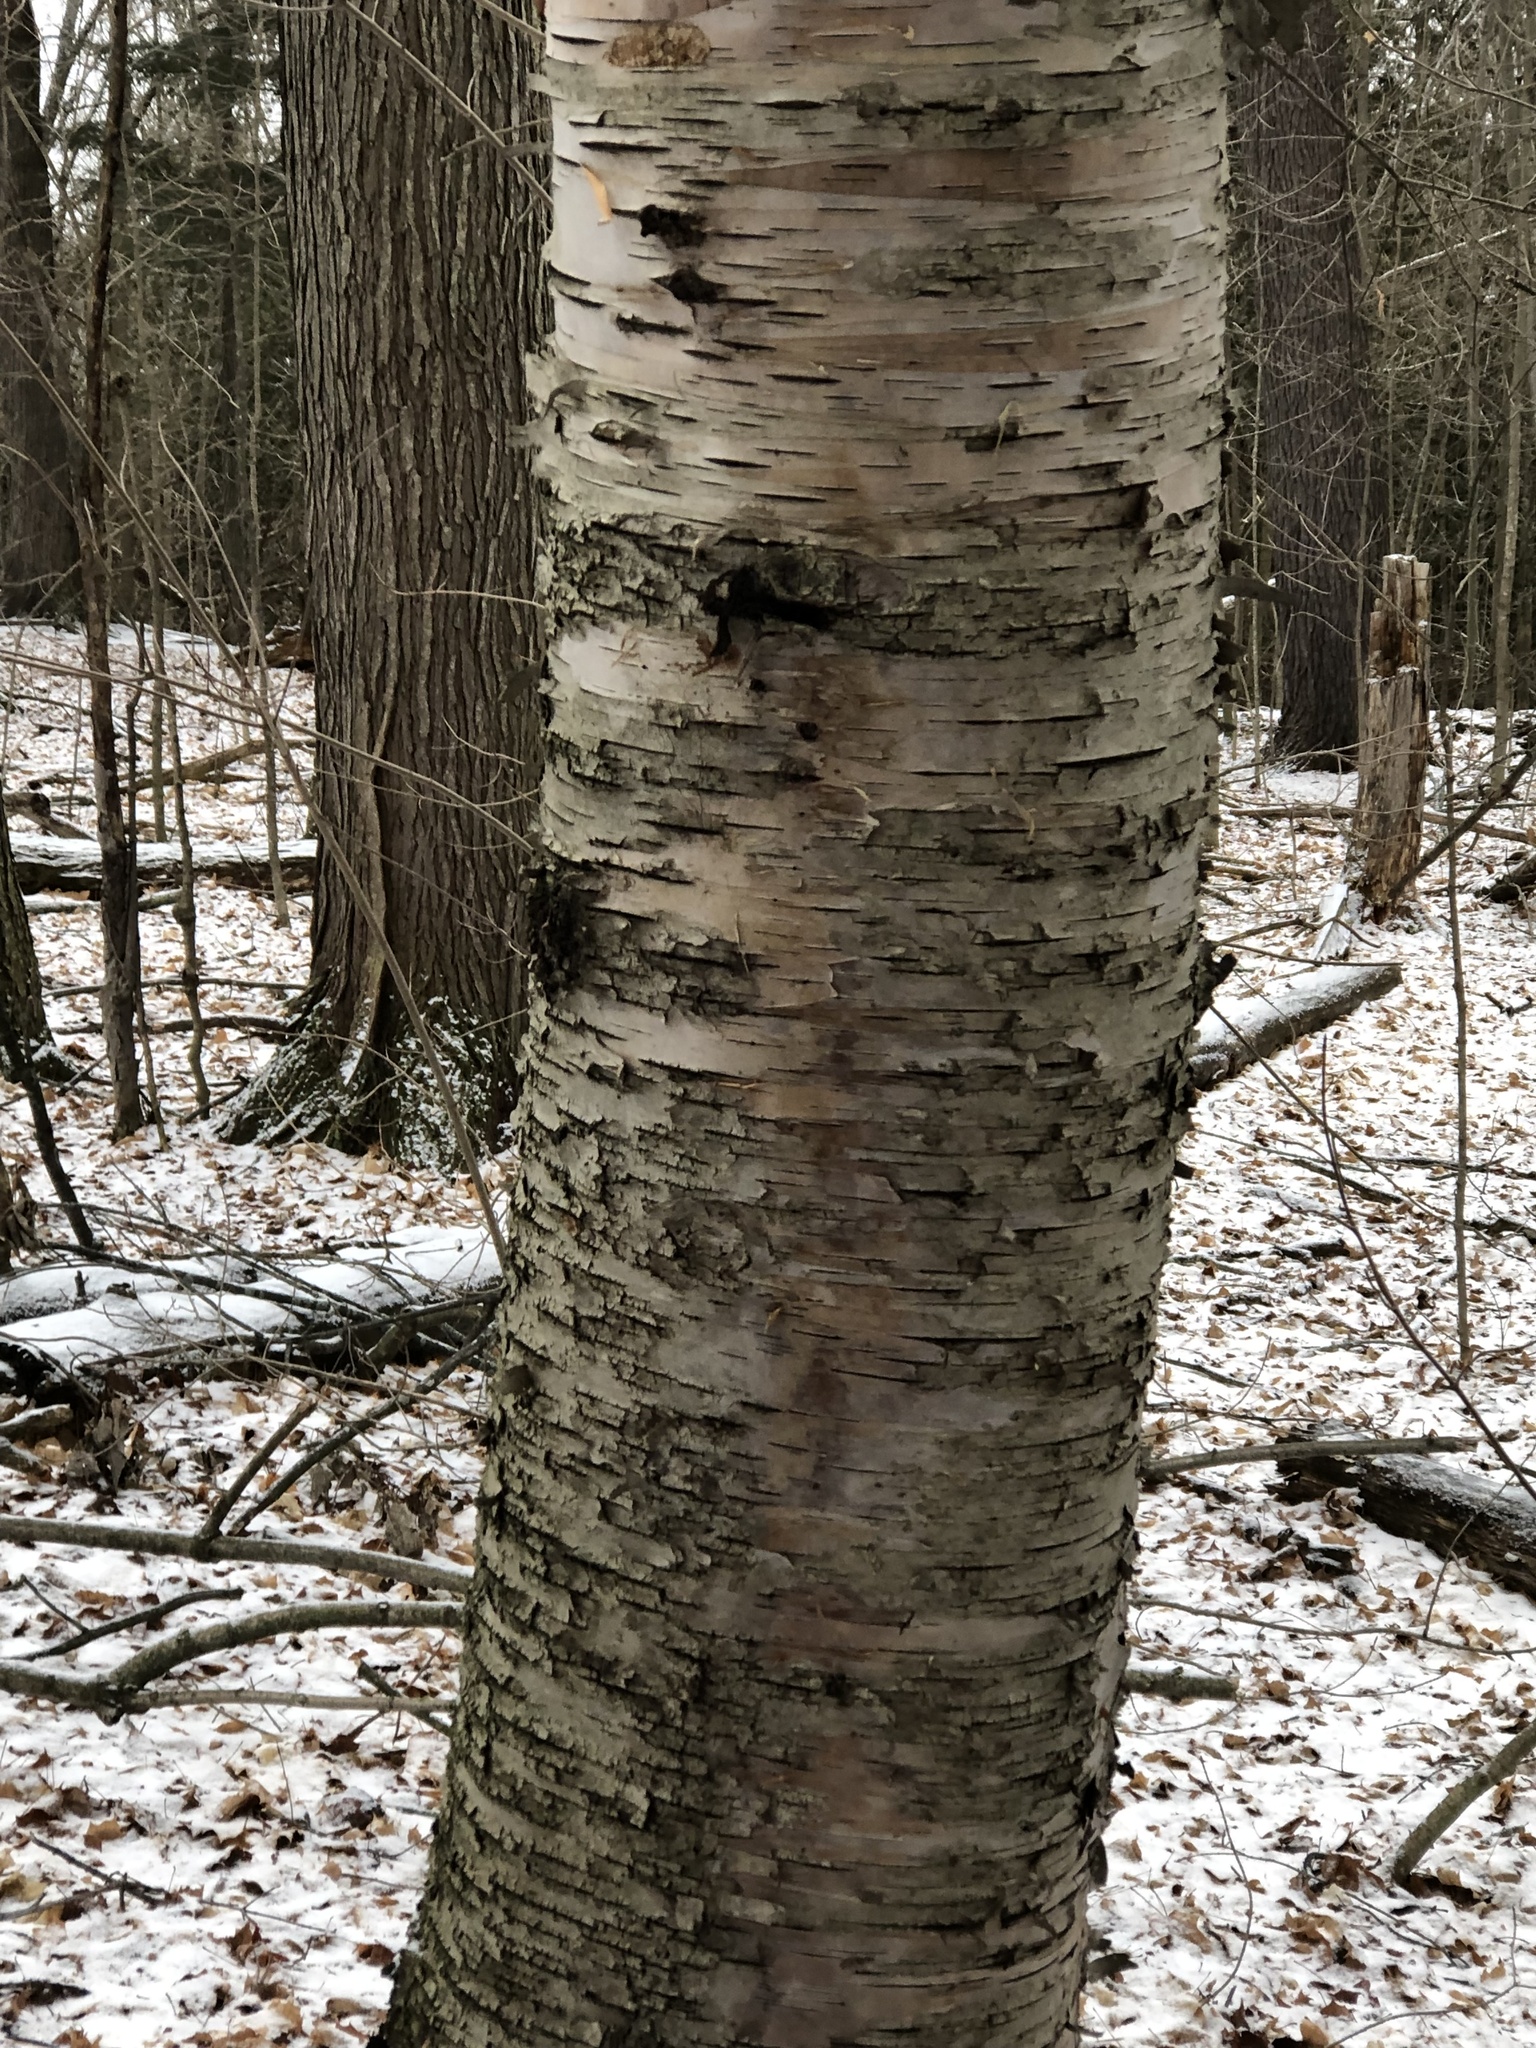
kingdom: Plantae
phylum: Tracheophyta
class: Magnoliopsida
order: Fagales
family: Betulaceae
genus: Betula
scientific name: Betula alleghaniensis
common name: Yellow birch
